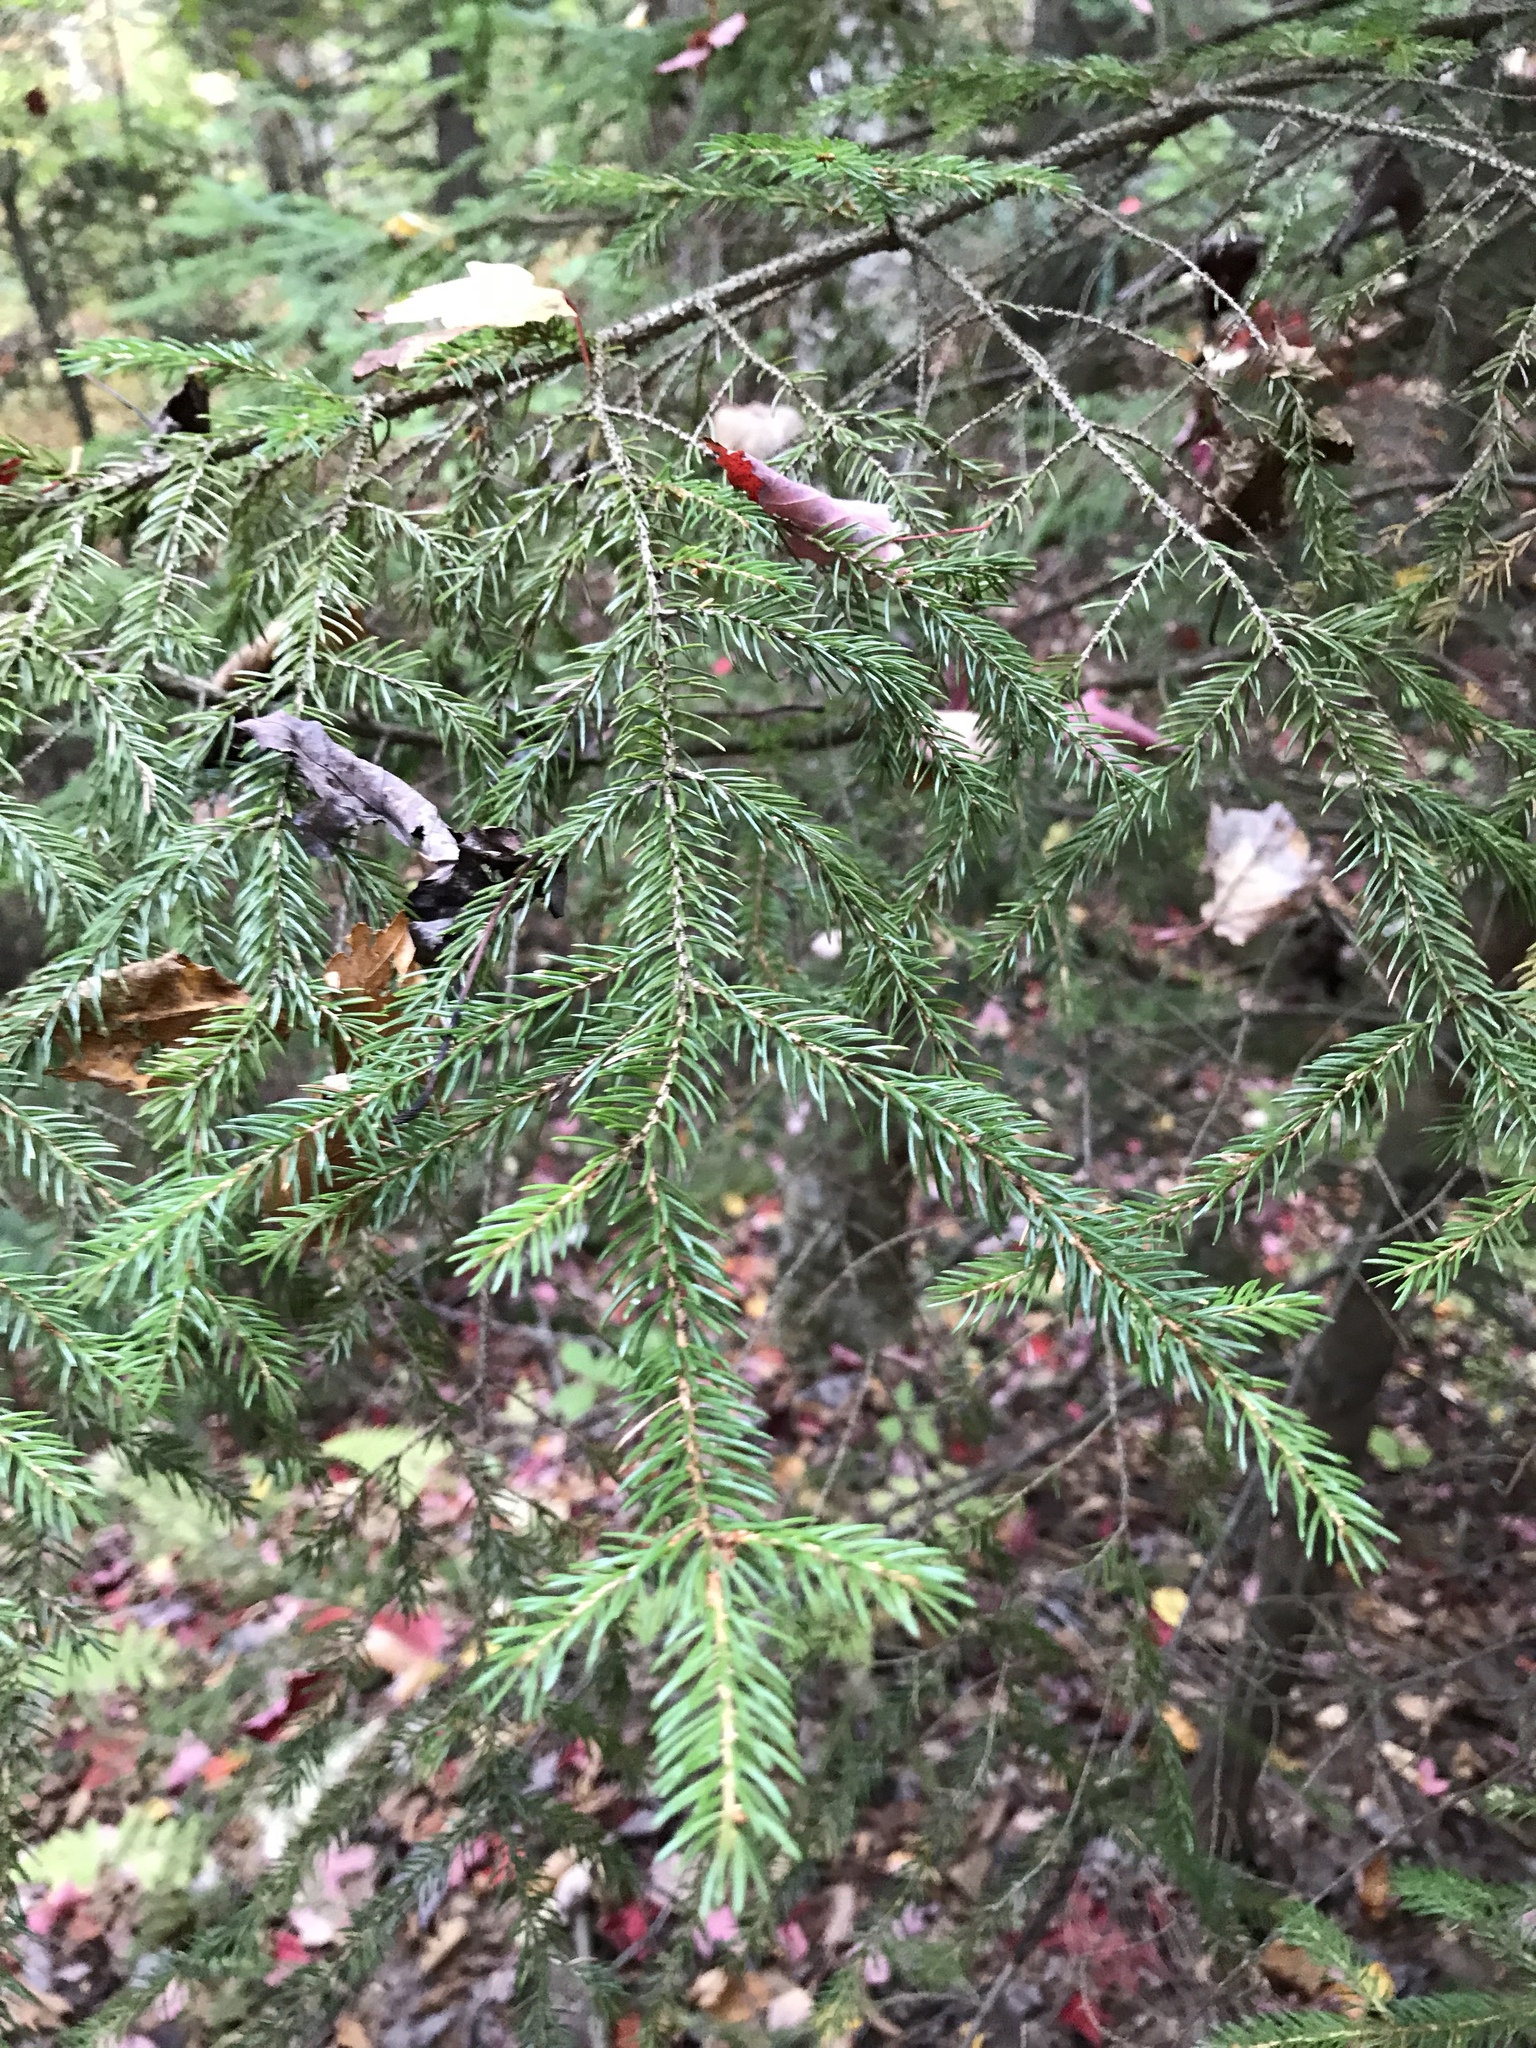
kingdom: Plantae
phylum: Tracheophyta
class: Pinopsida
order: Pinales
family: Pinaceae
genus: Picea
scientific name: Picea rubens
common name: Red spruce
